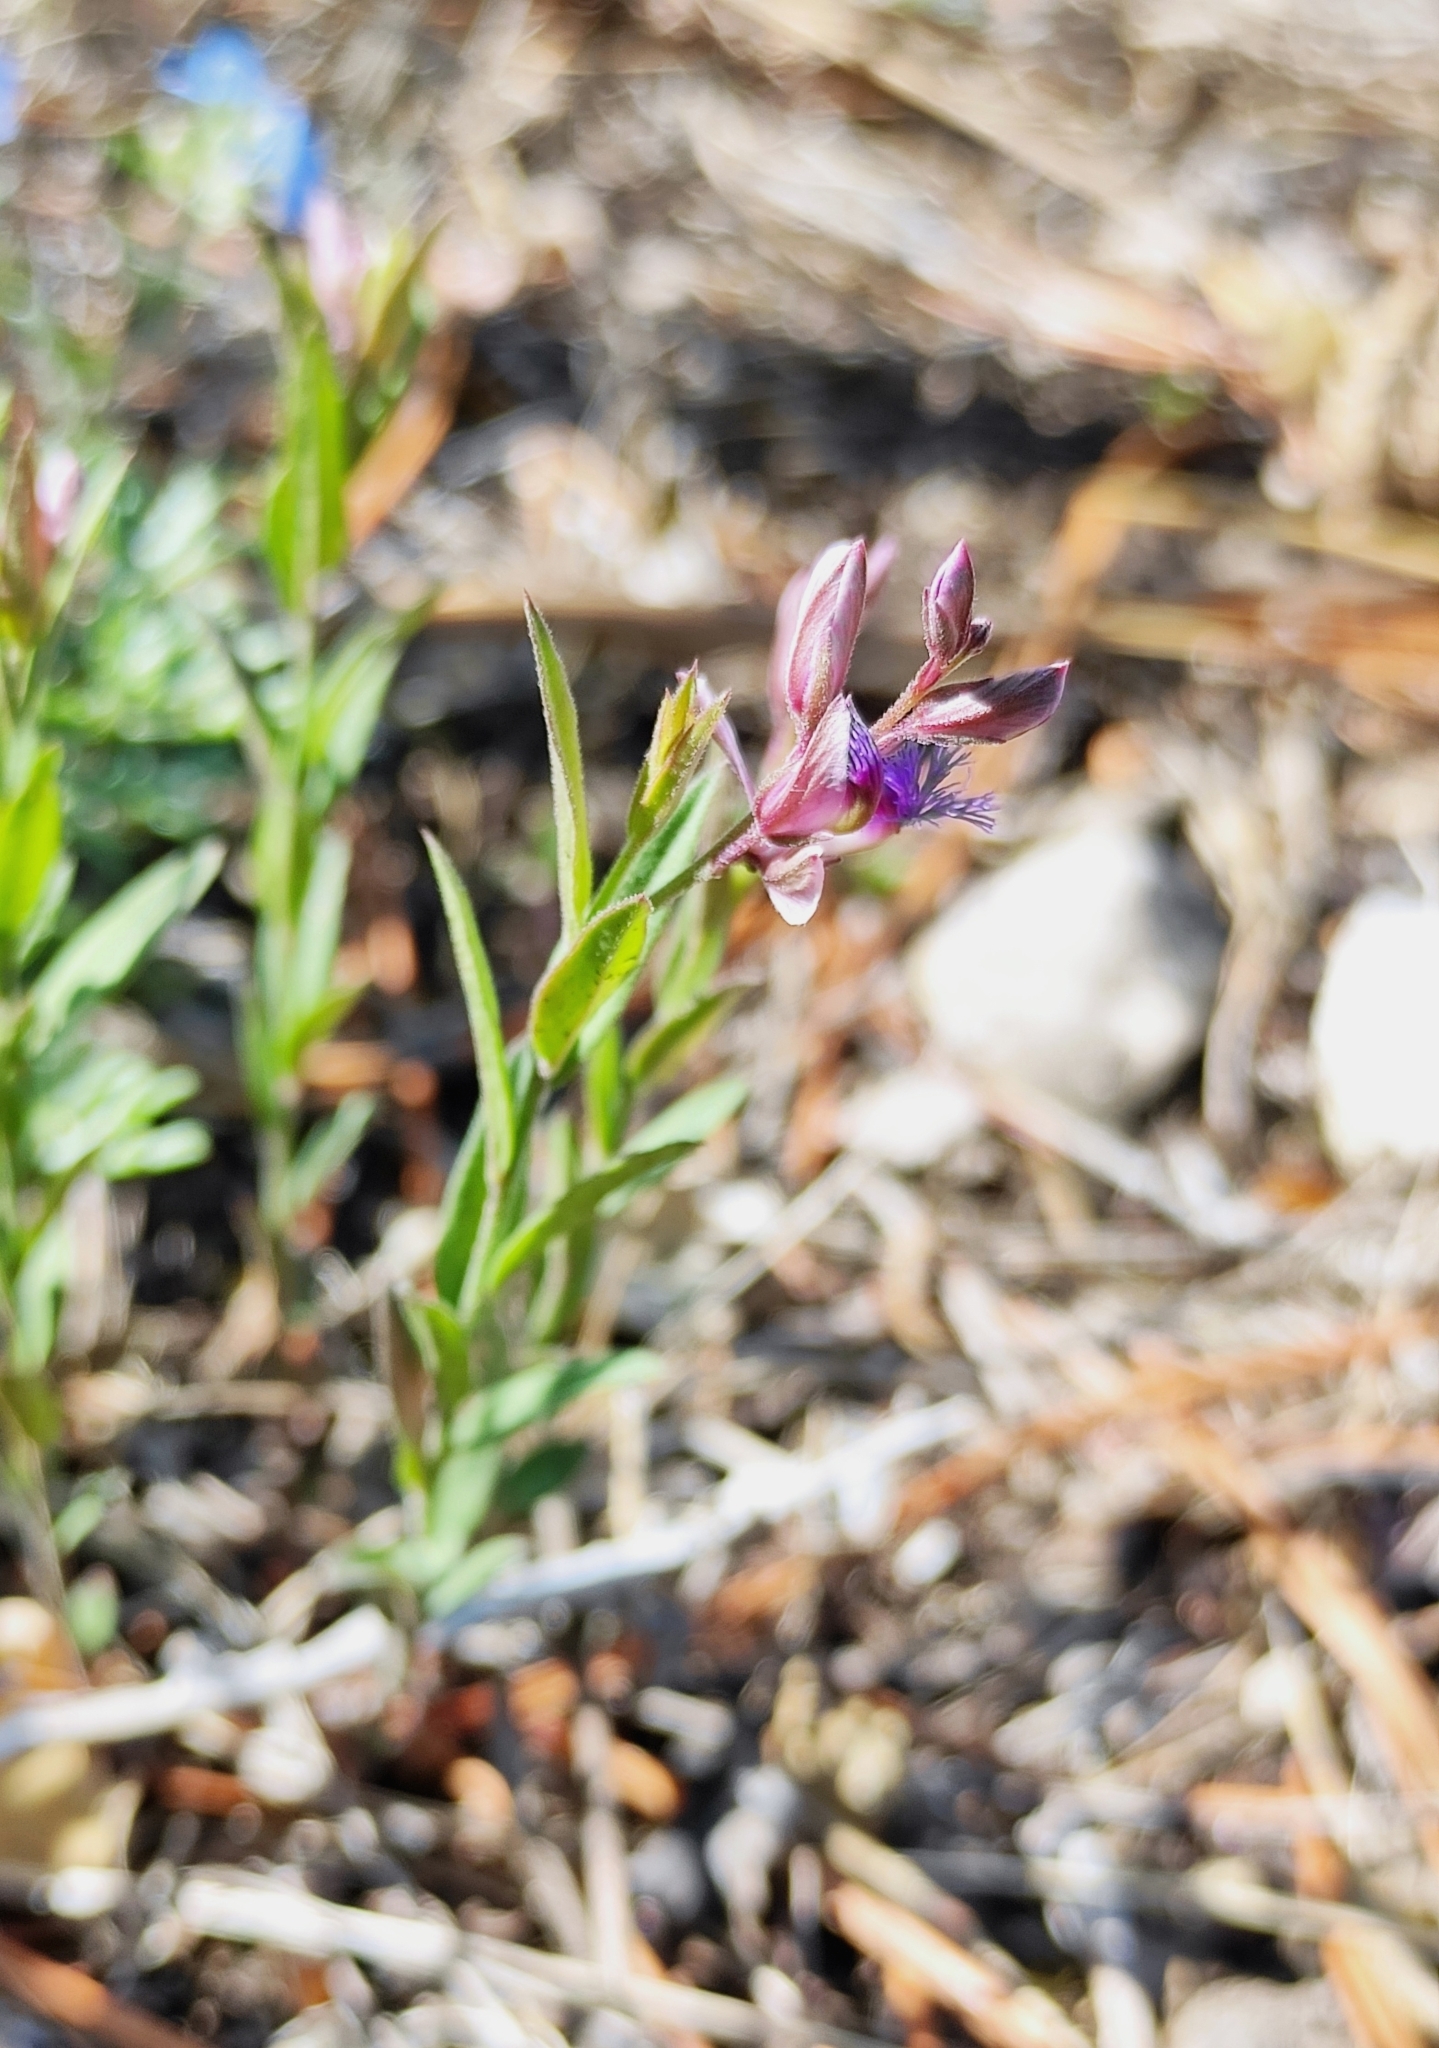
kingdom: Plantae
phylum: Tracheophyta
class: Magnoliopsida
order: Fabales
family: Polygalaceae
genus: Polygala
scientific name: Polygala sibirica
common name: Siberian polygala
